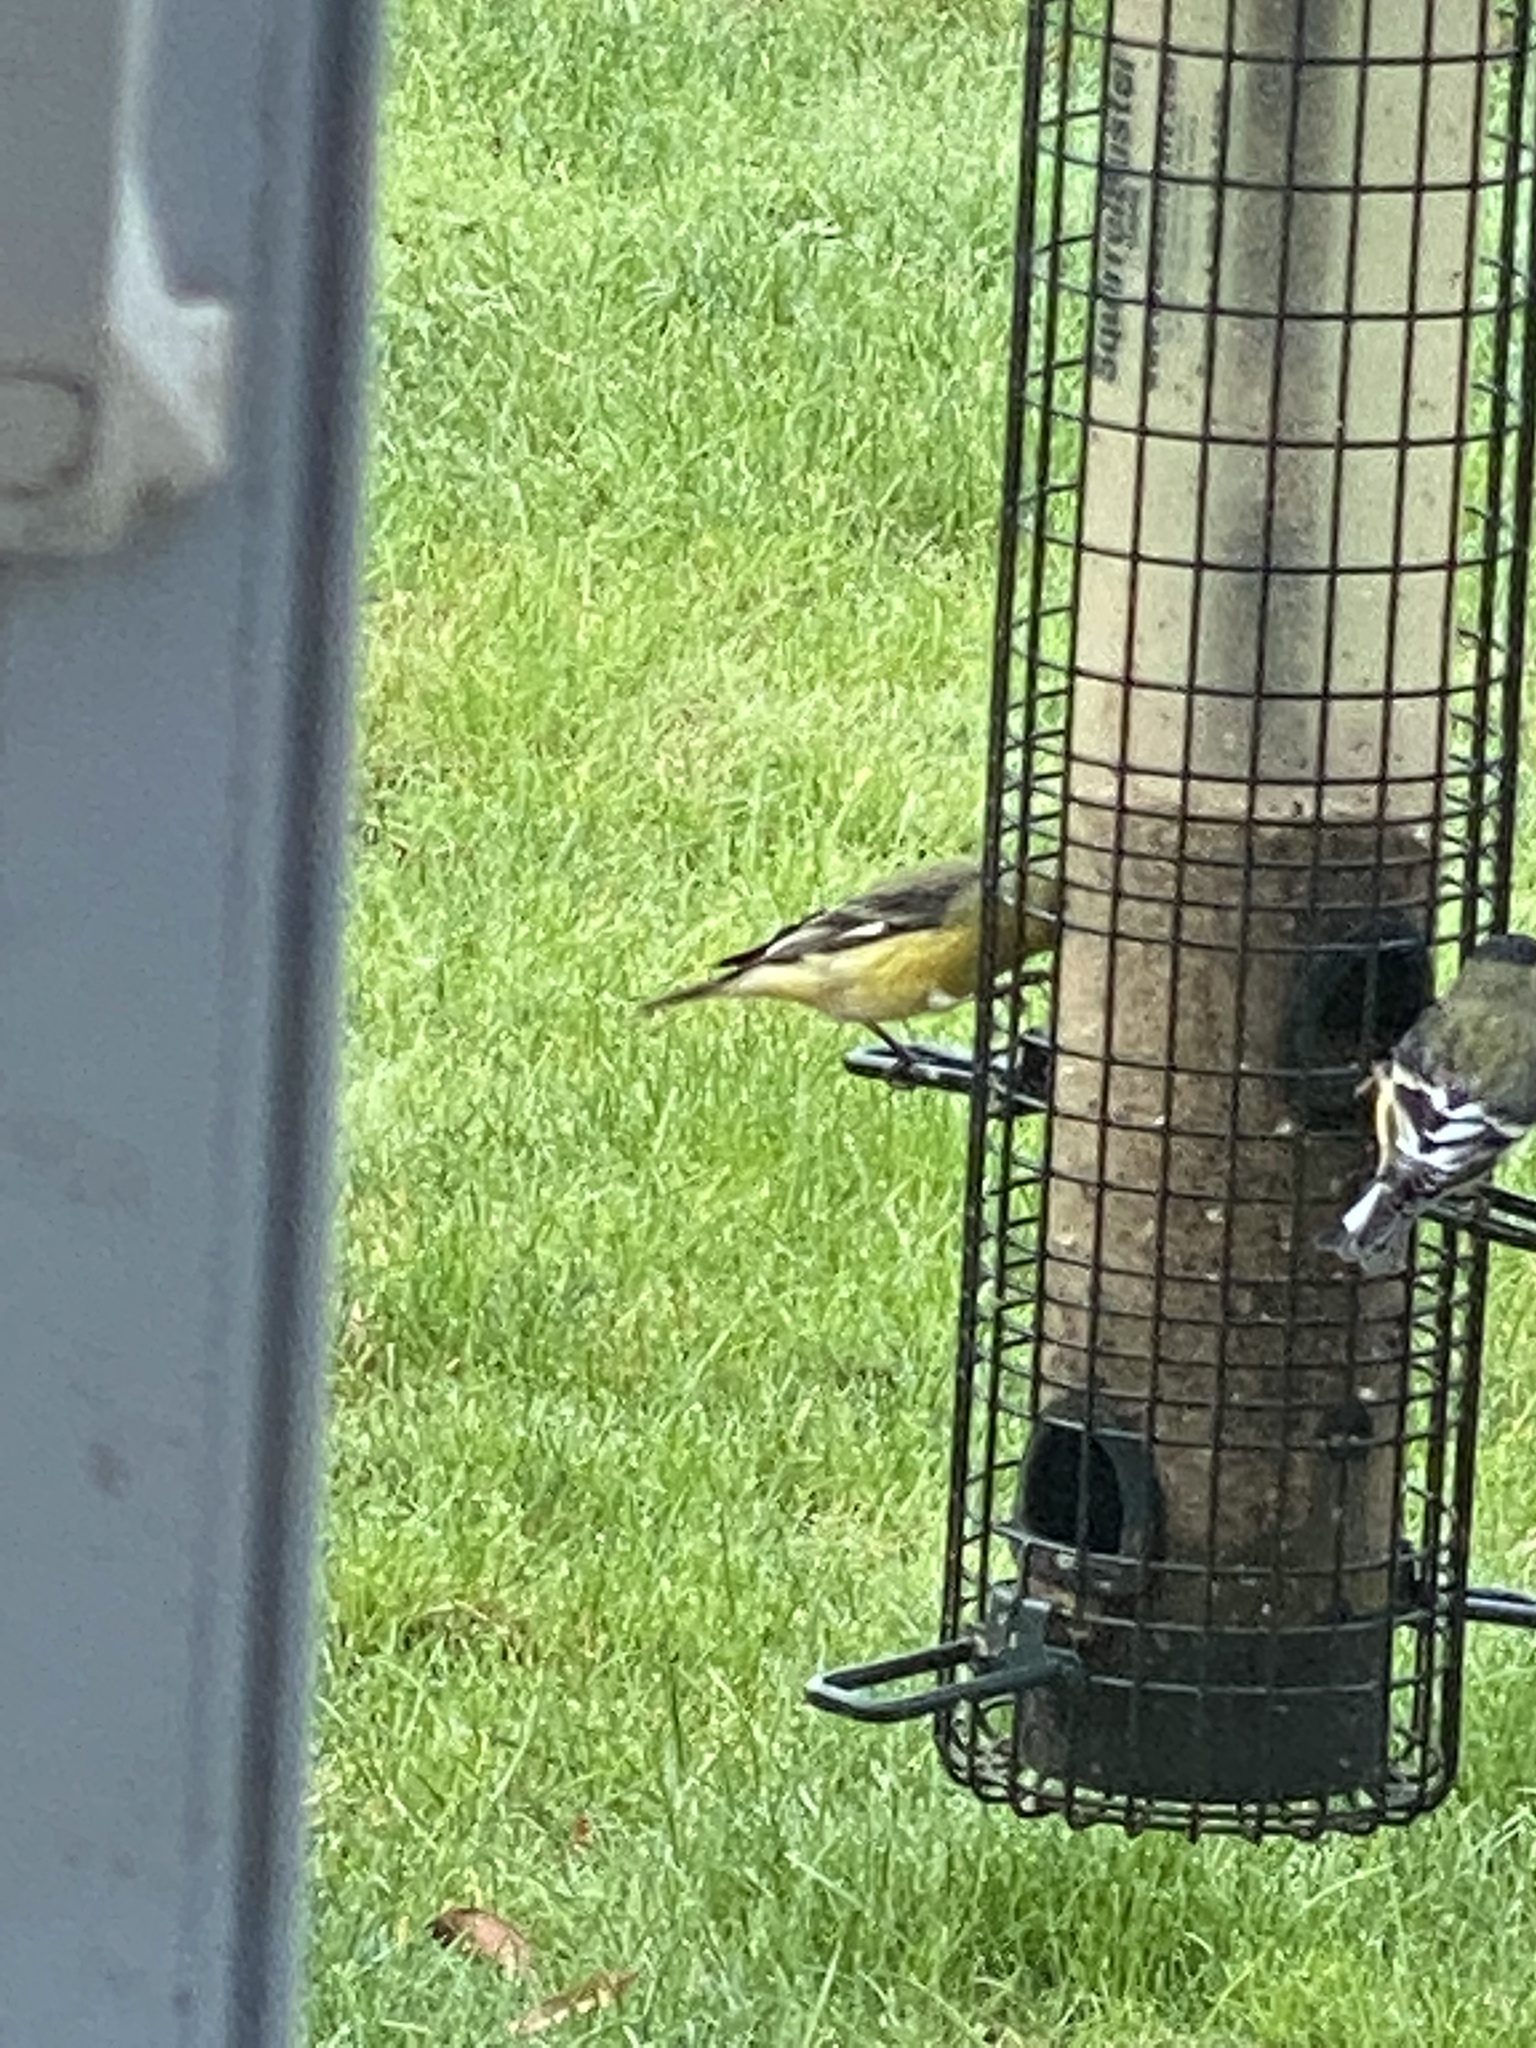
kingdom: Animalia
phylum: Chordata
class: Aves
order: Passeriformes
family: Fringillidae
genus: Spinus
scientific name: Spinus psaltria
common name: Lesser goldfinch
